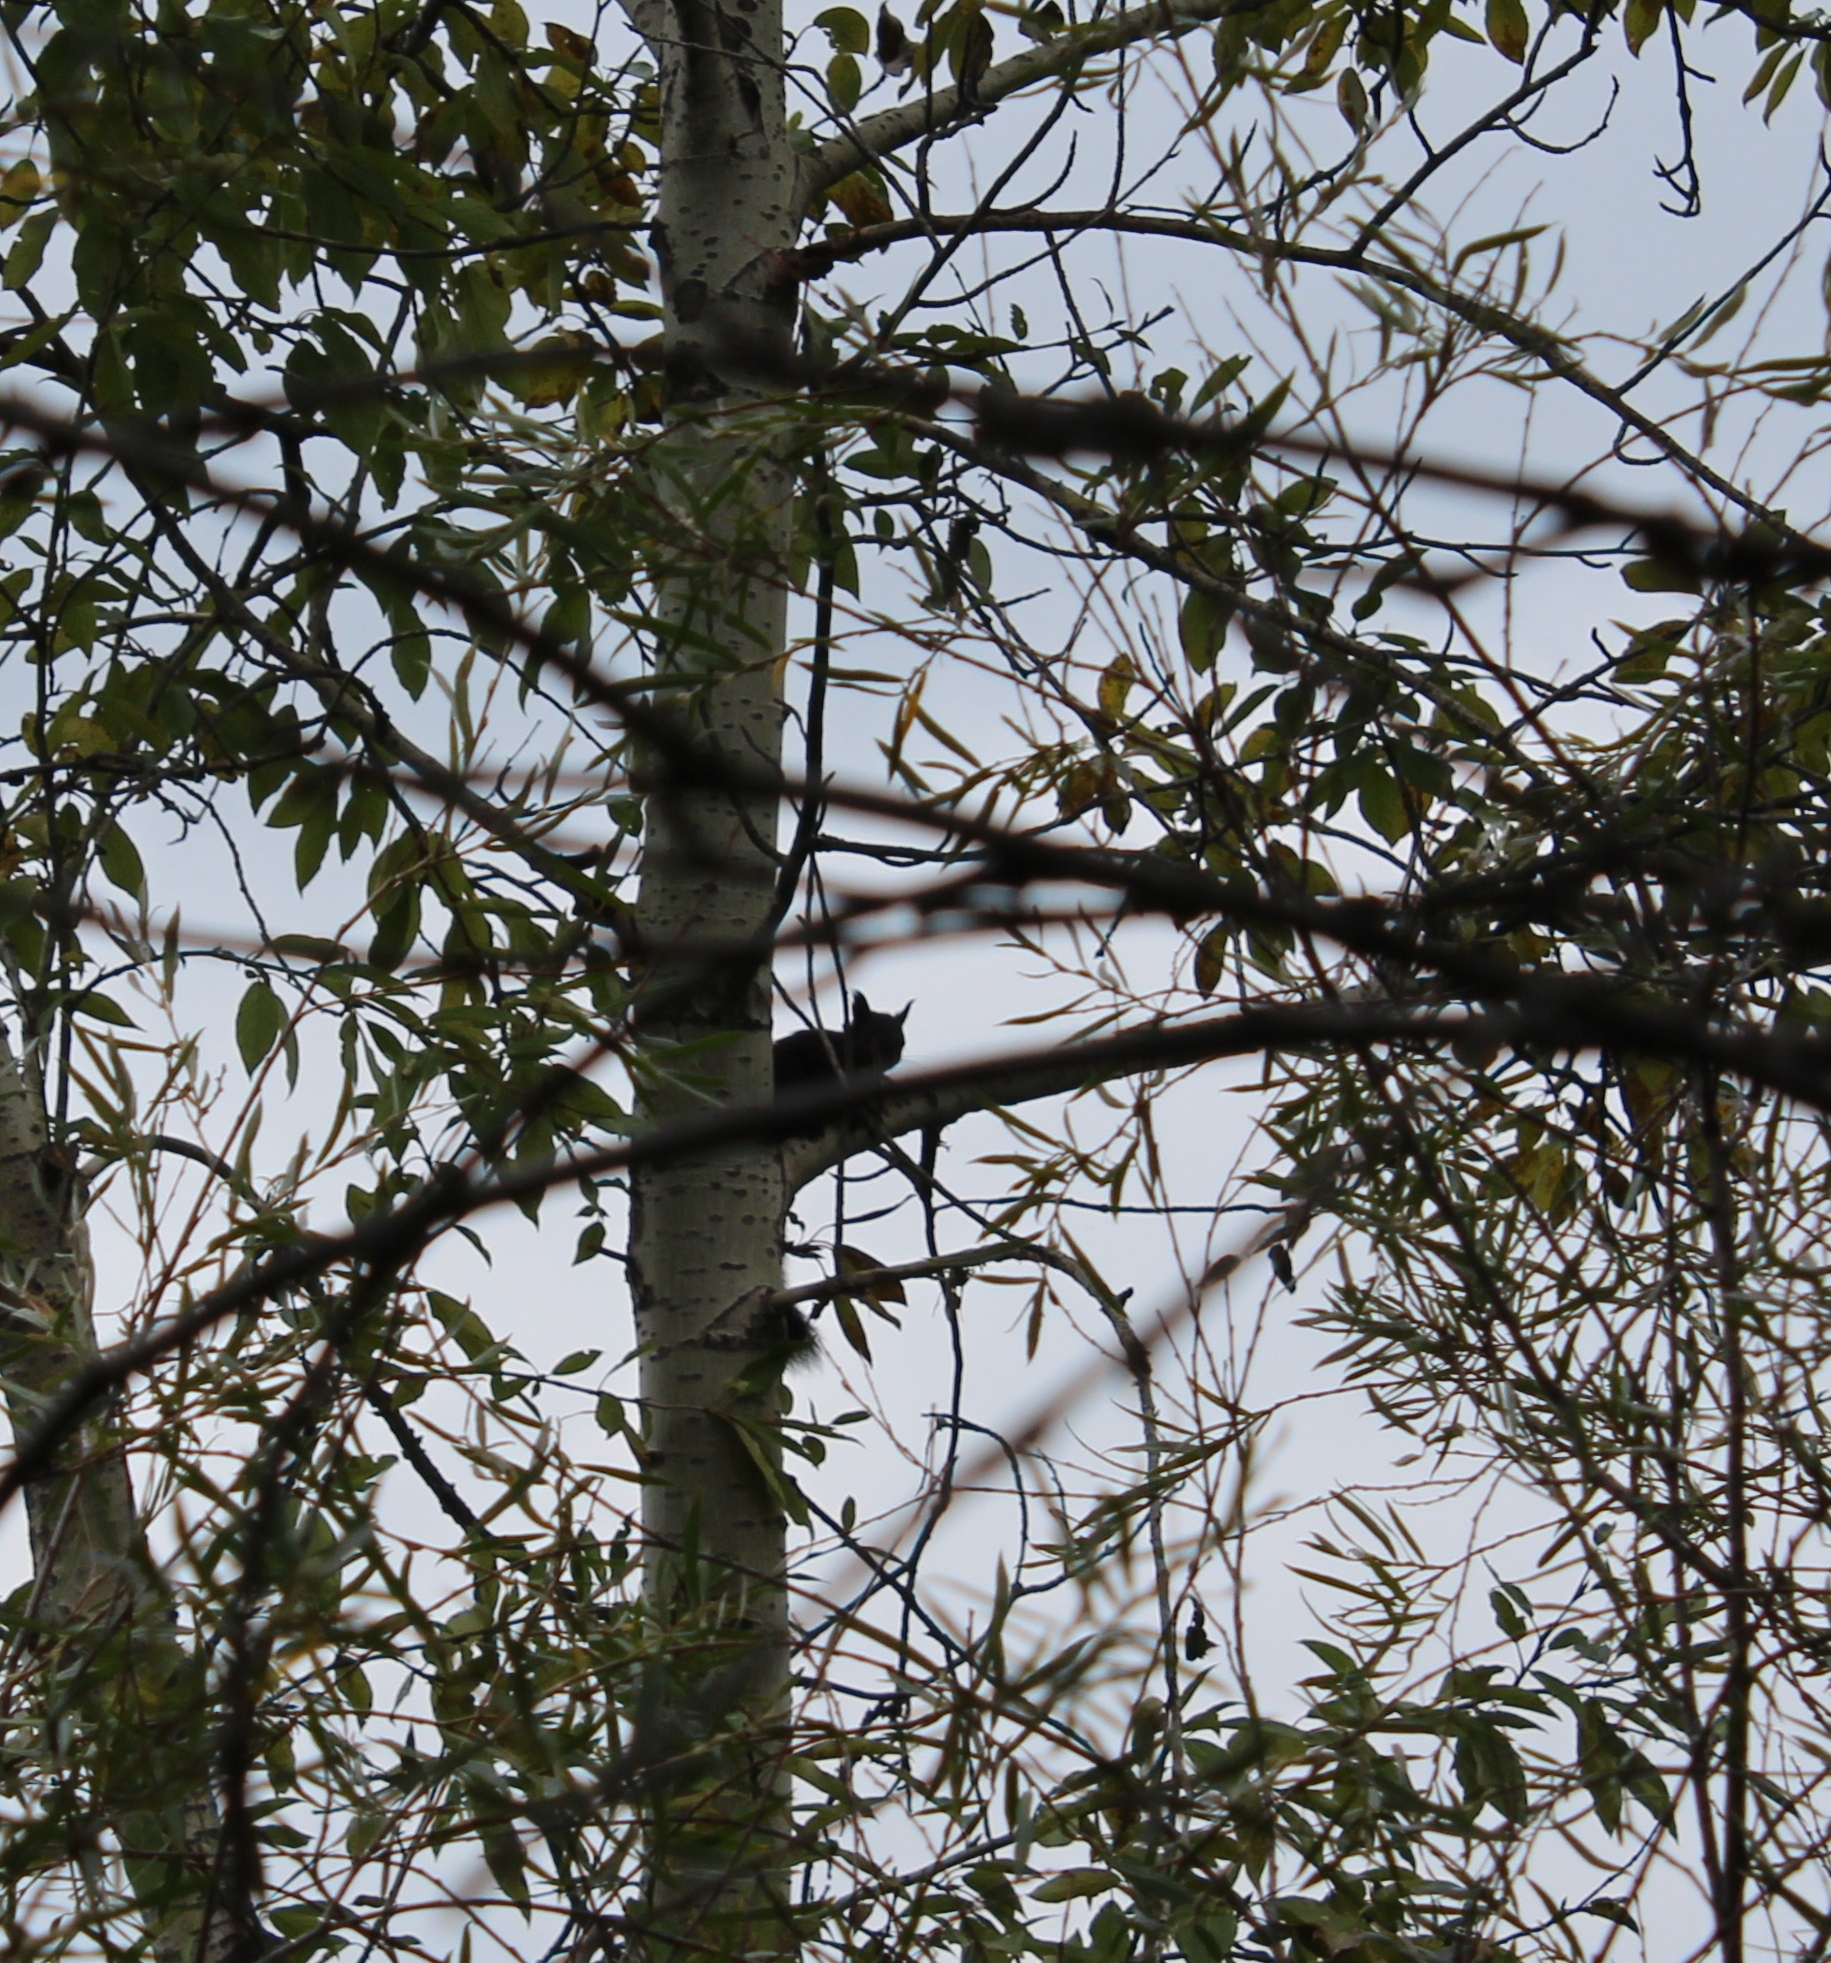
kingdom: Animalia
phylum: Chordata
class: Mammalia
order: Rodentia
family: Sciuridae
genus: Sciurus
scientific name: Sciurus vulgaris
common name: Eurasian red squirrel
